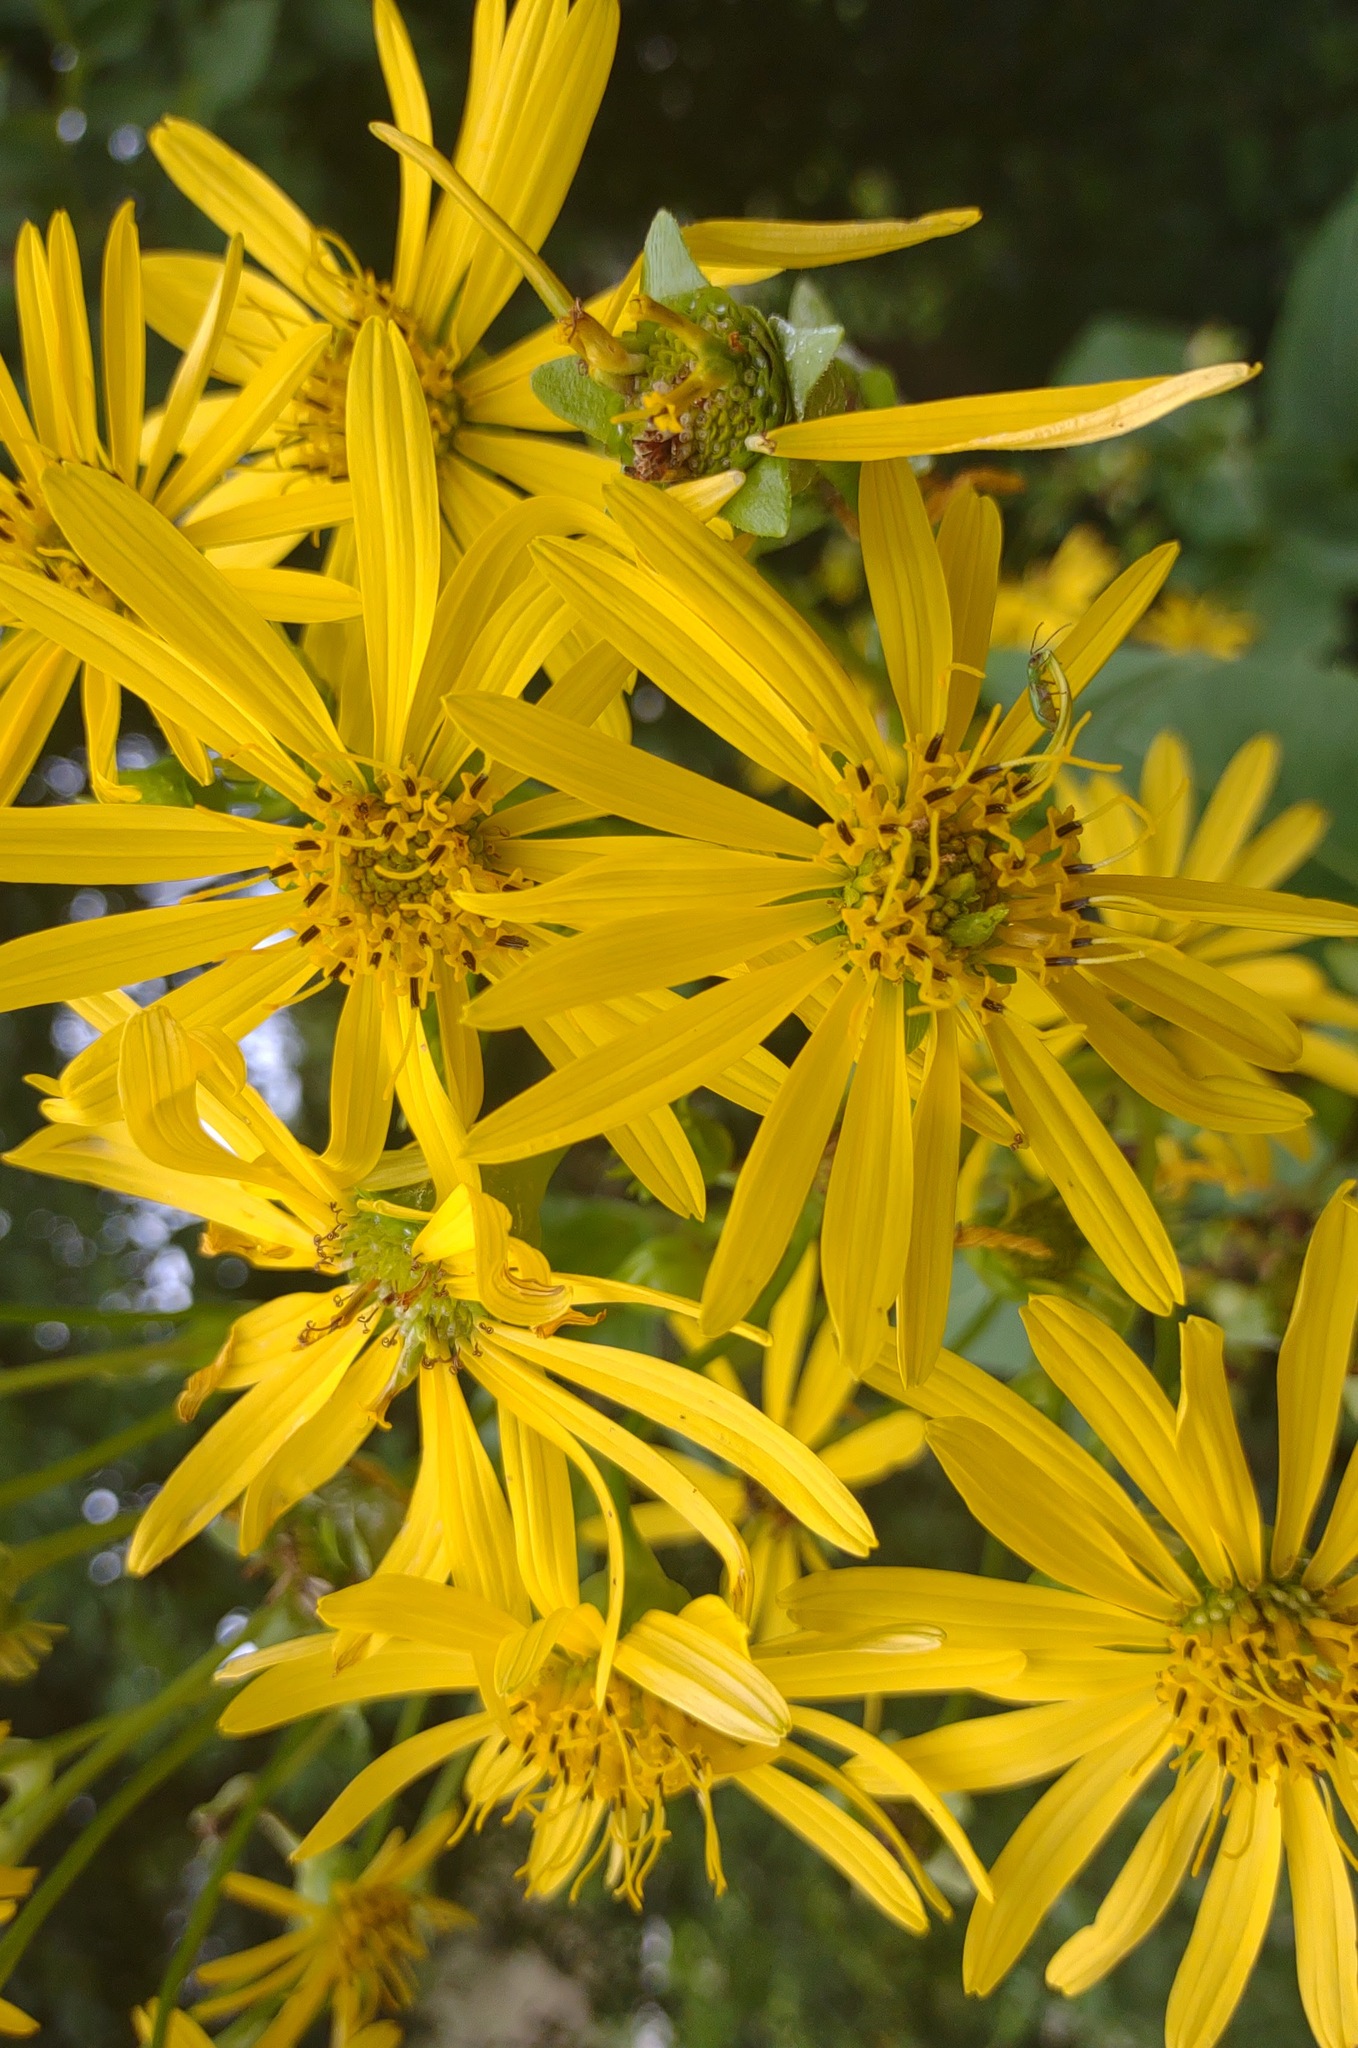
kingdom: Plantae
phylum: Tracheophyta
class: Magnoliopsida
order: Asterales
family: Asteraceae
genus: Silphium
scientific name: Silphium perfoliatum
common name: Cup-plant
